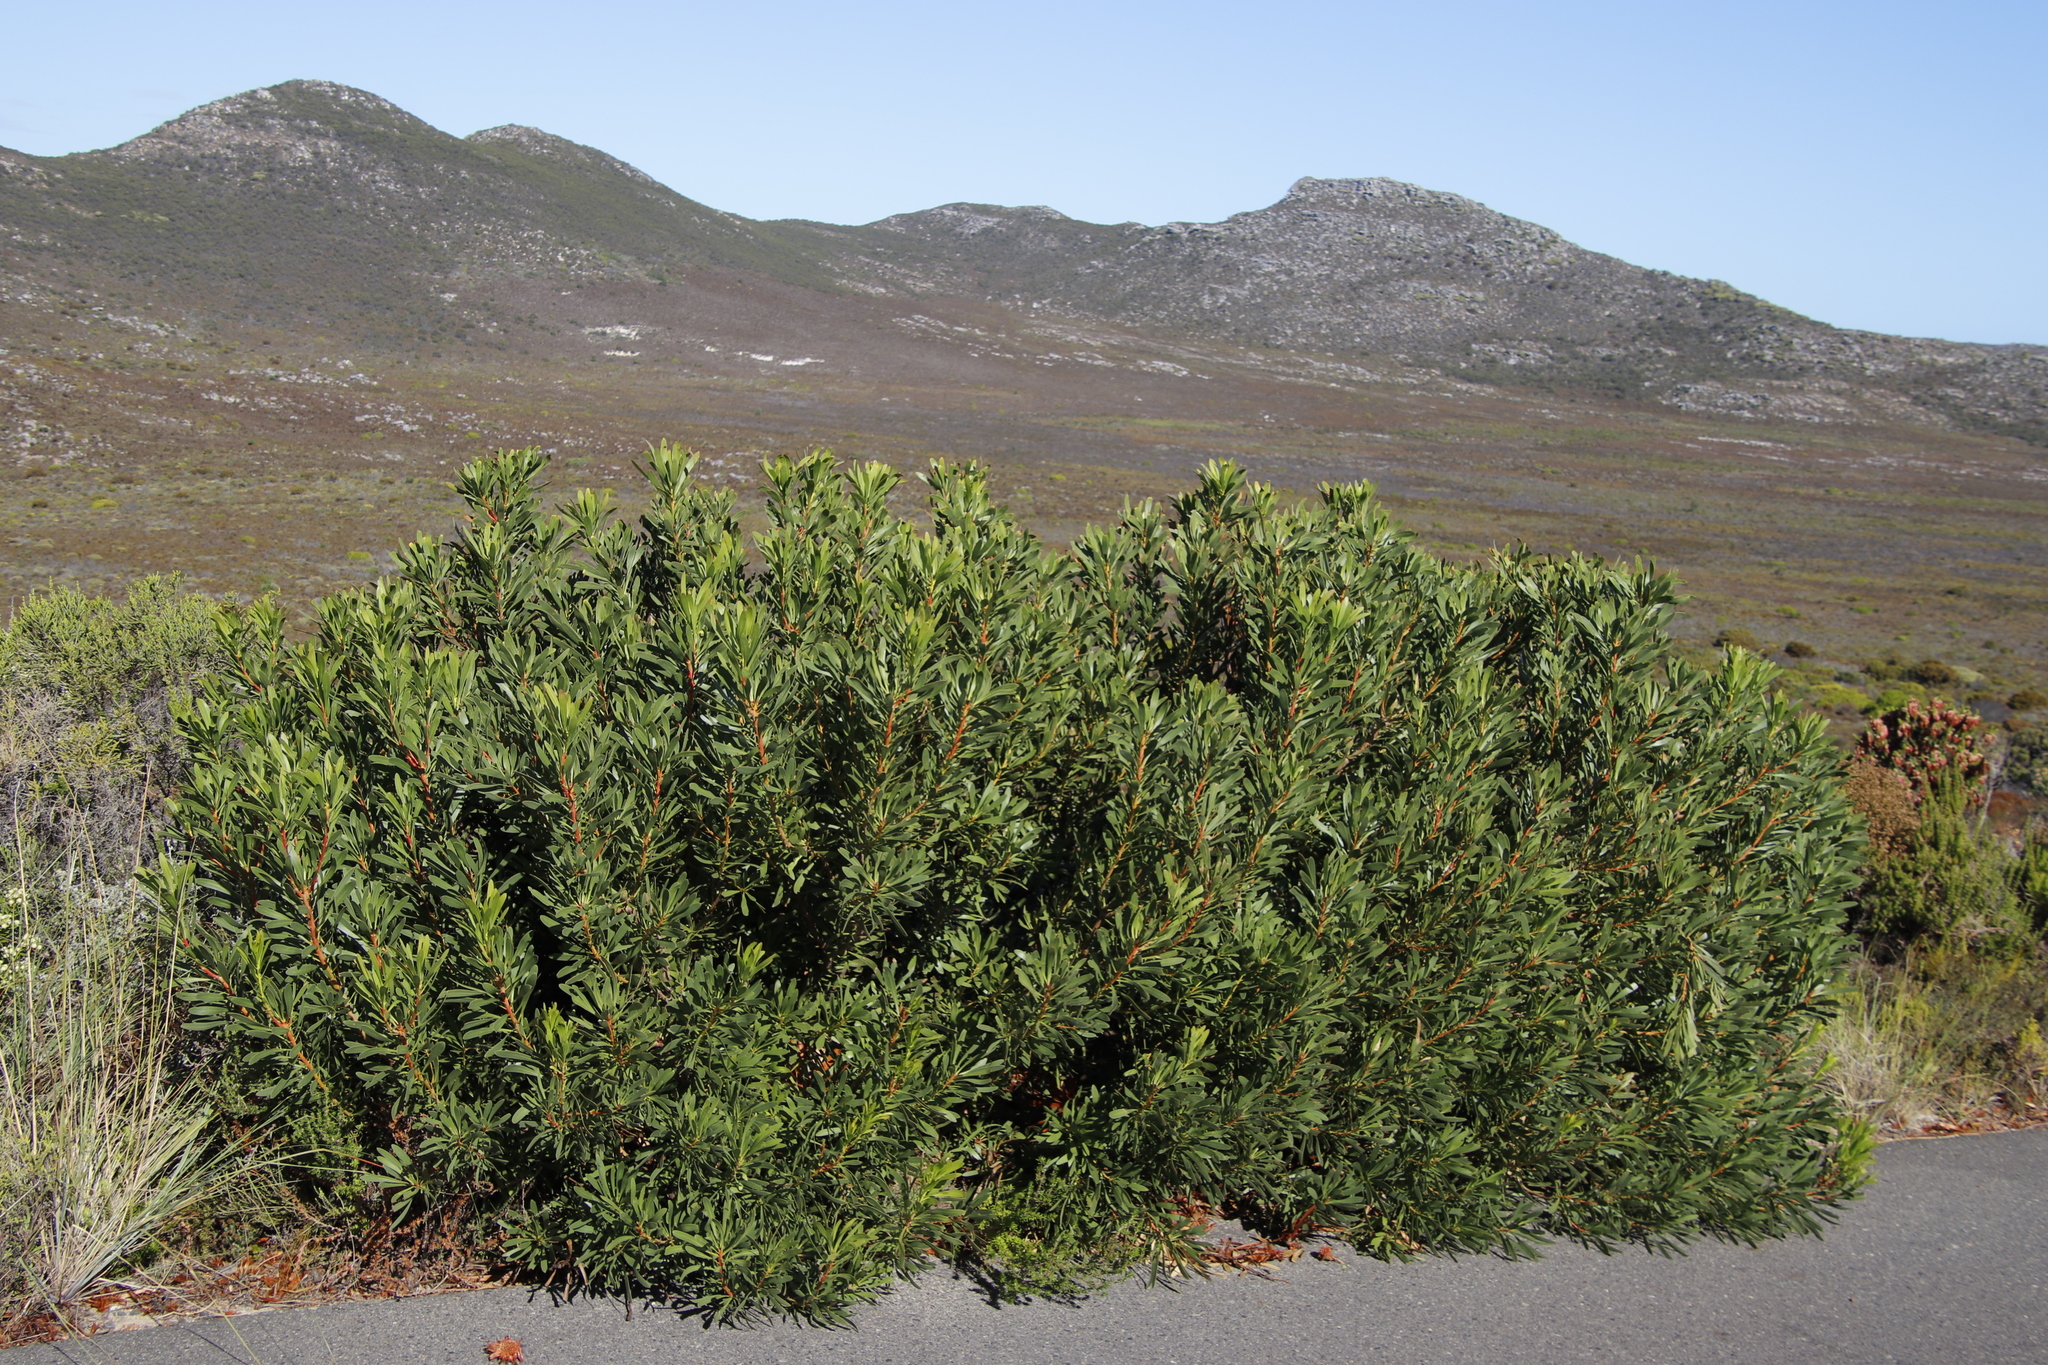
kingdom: Plantae
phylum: Tracheophyta
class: Magnoliopsida
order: Proteales
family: Proteaceae
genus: Protea
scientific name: Protea repens
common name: Sugarbush
